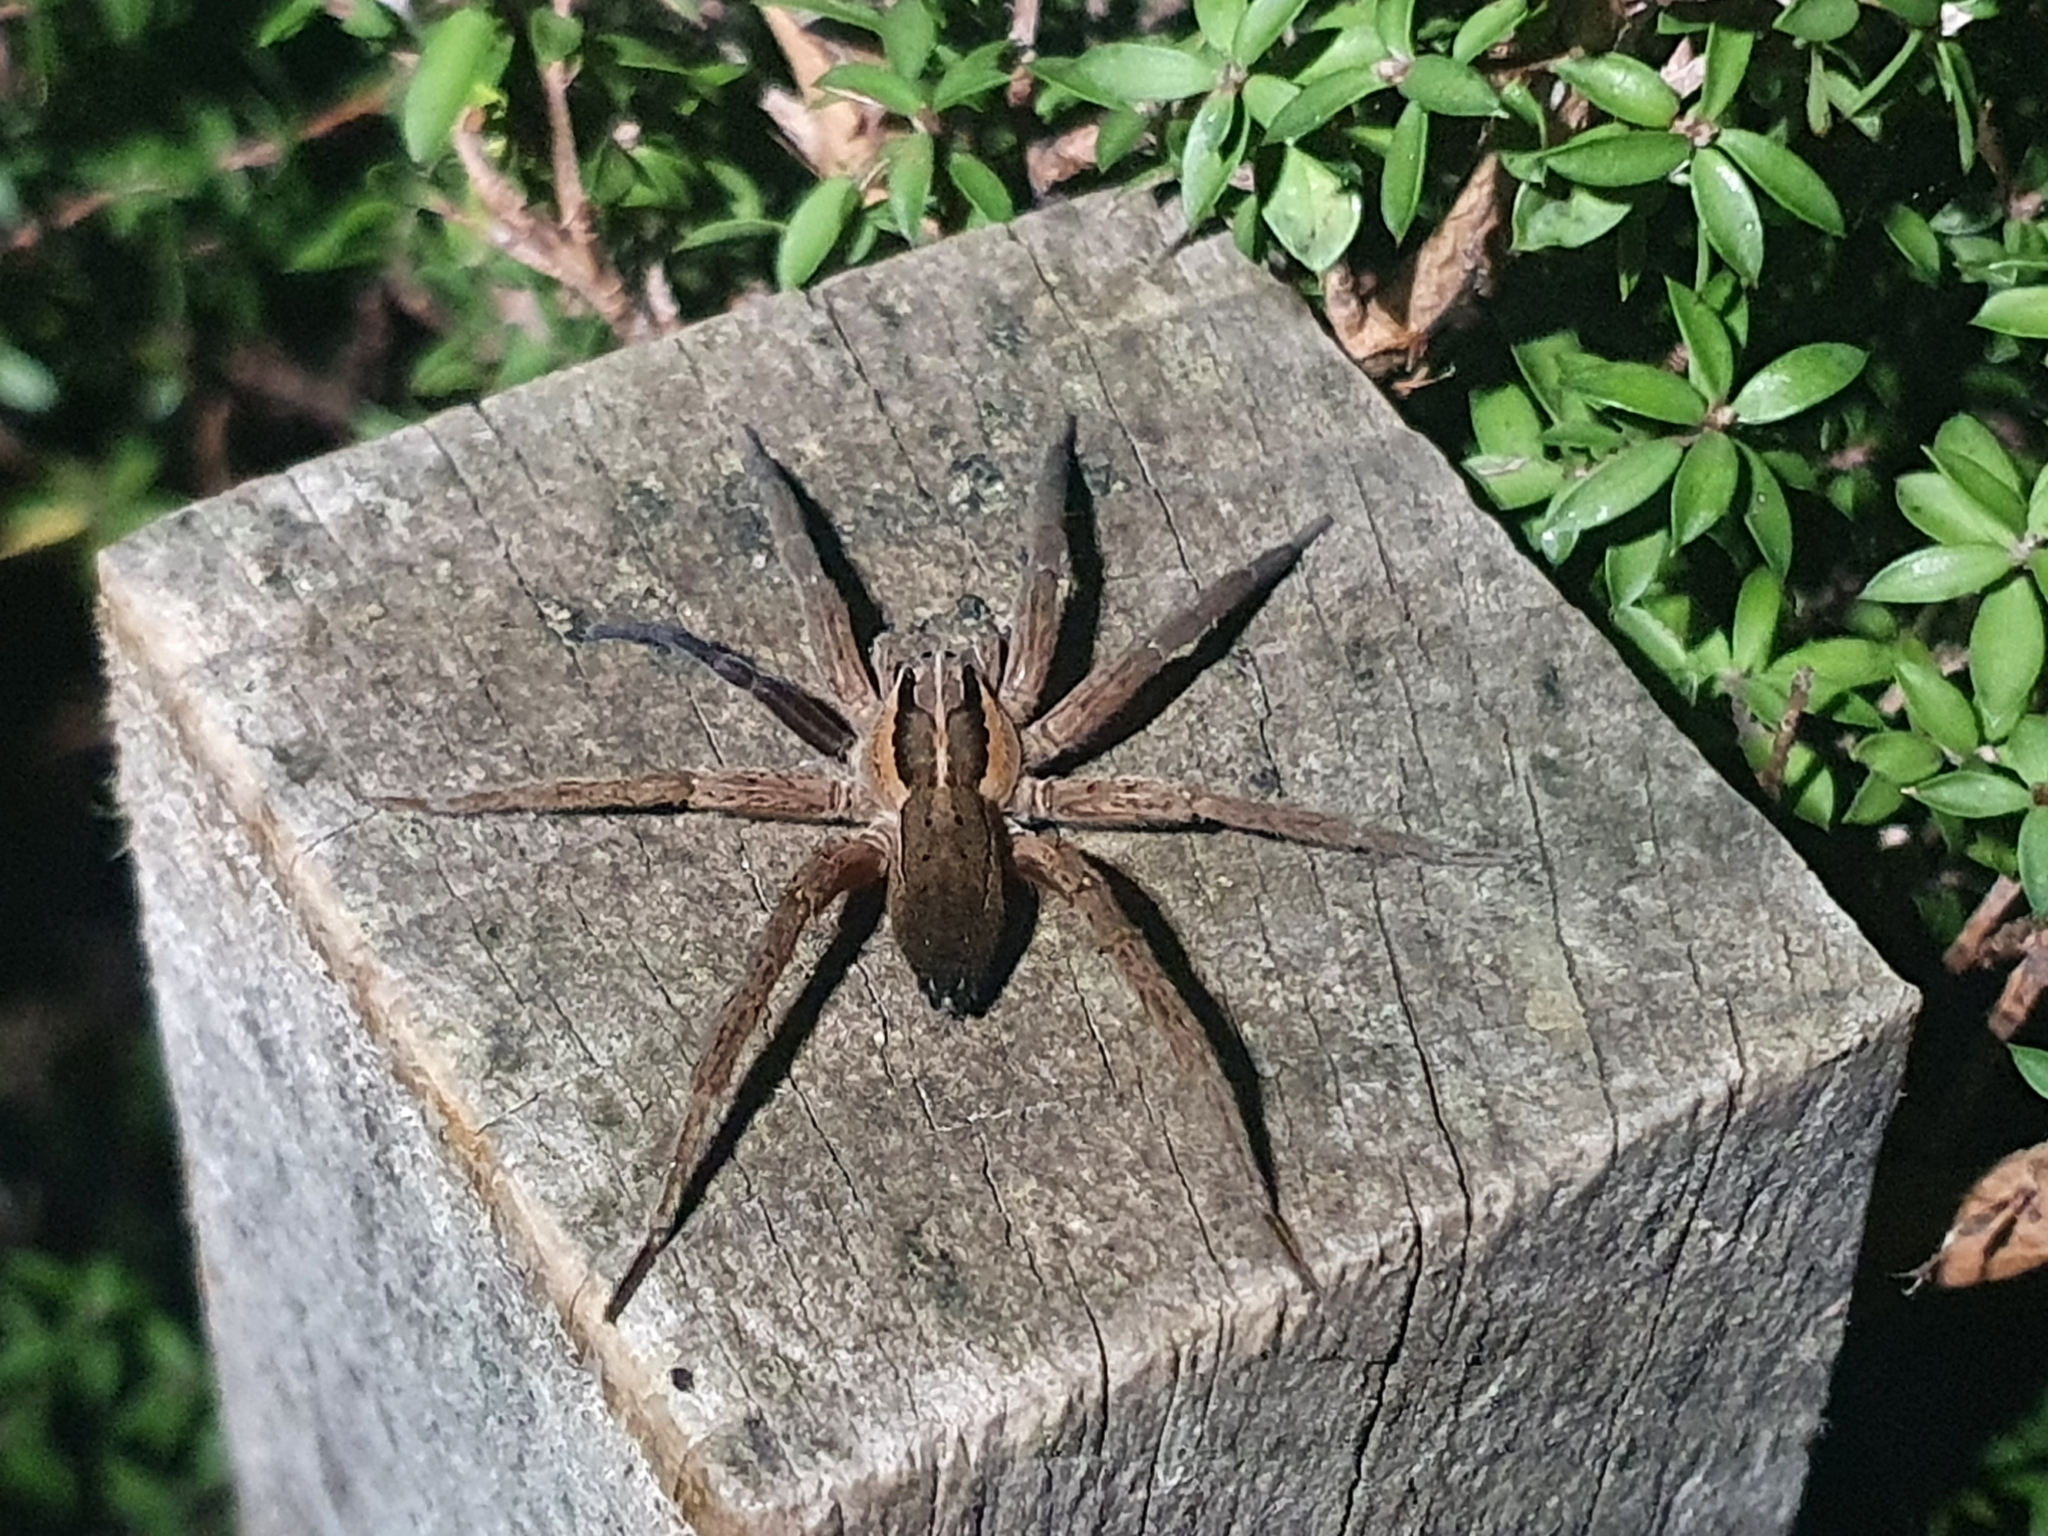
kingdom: Animalia
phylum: Arthropoda
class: Arachnida
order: Araneae
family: Pisauridae
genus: Dolomedes
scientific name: Dolomedes minor
